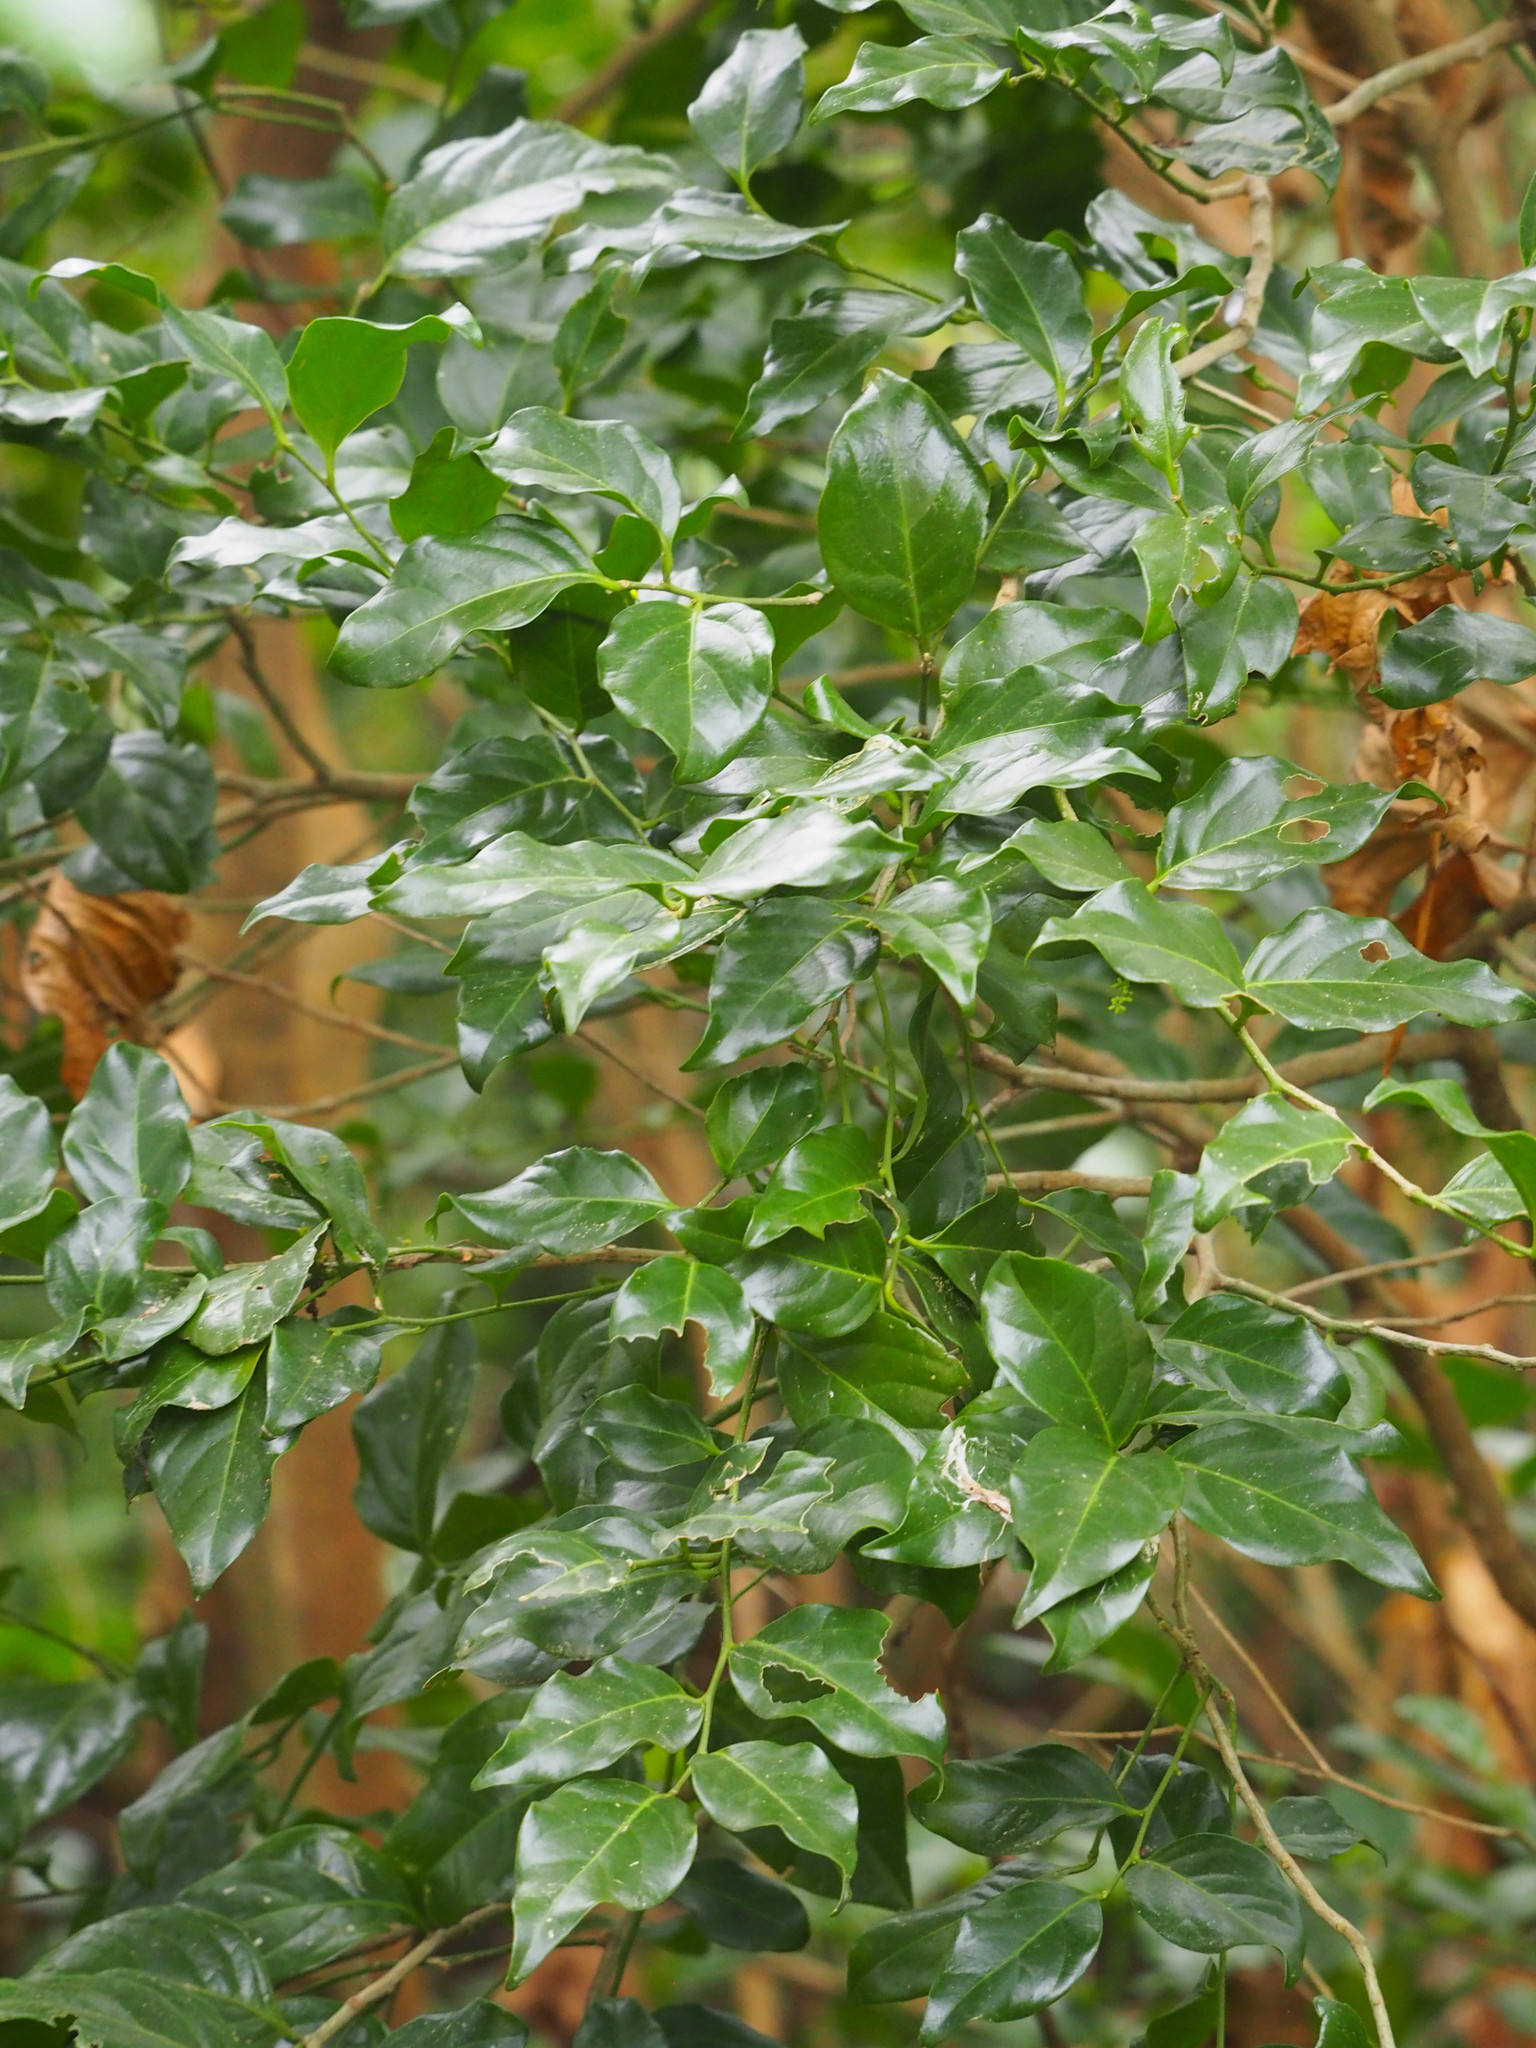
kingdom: Plantae
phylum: Tracheophyta
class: Magnoliopsida
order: Santalales
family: Opiliaceae
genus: Champereia
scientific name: Champereia manillana
